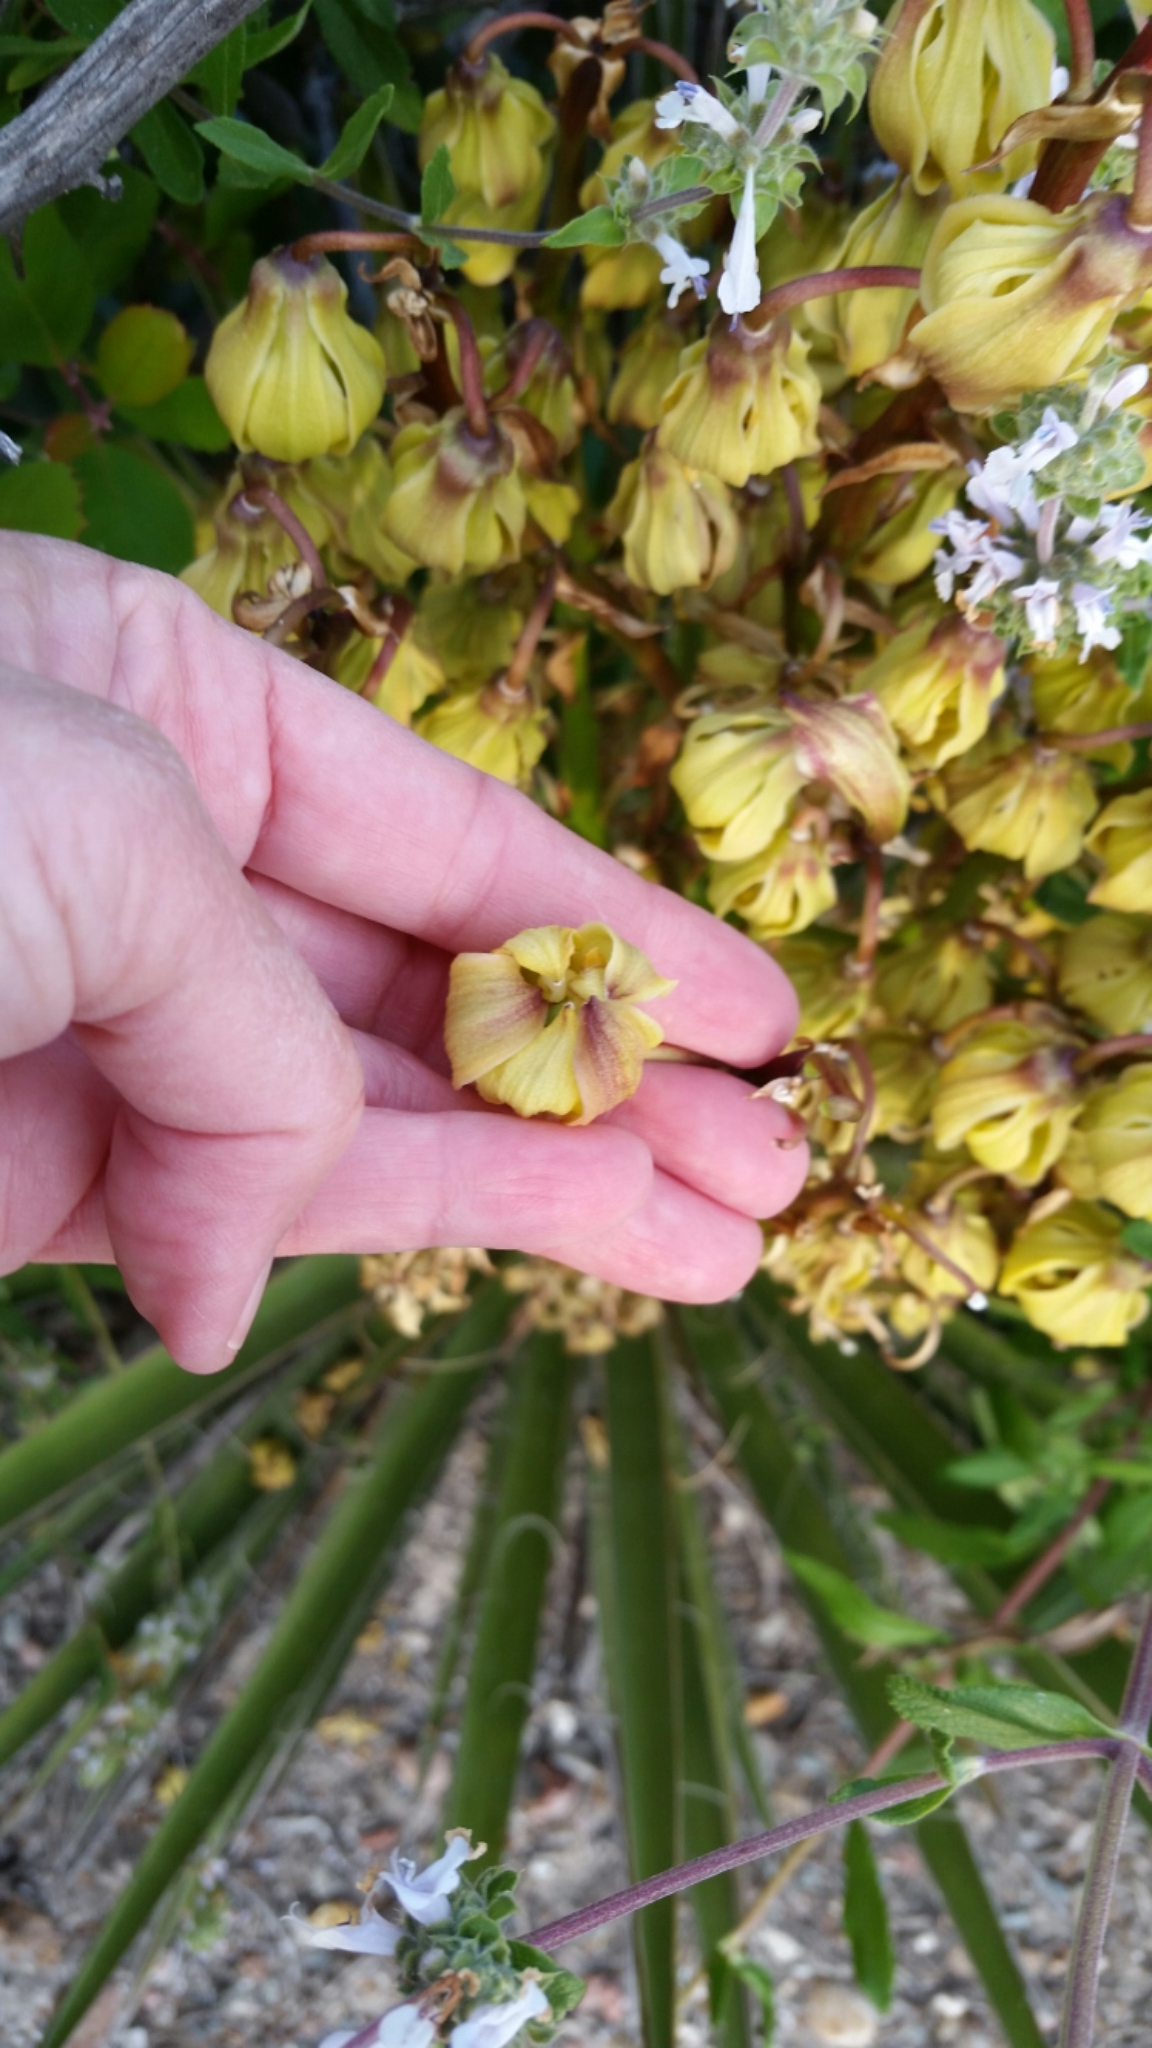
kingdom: Plantae
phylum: Tracheophyta
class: Liliopsida
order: Asparagales
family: Asparagaceae
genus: Yucca
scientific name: Yucca schidigera
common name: Mojave yucca
